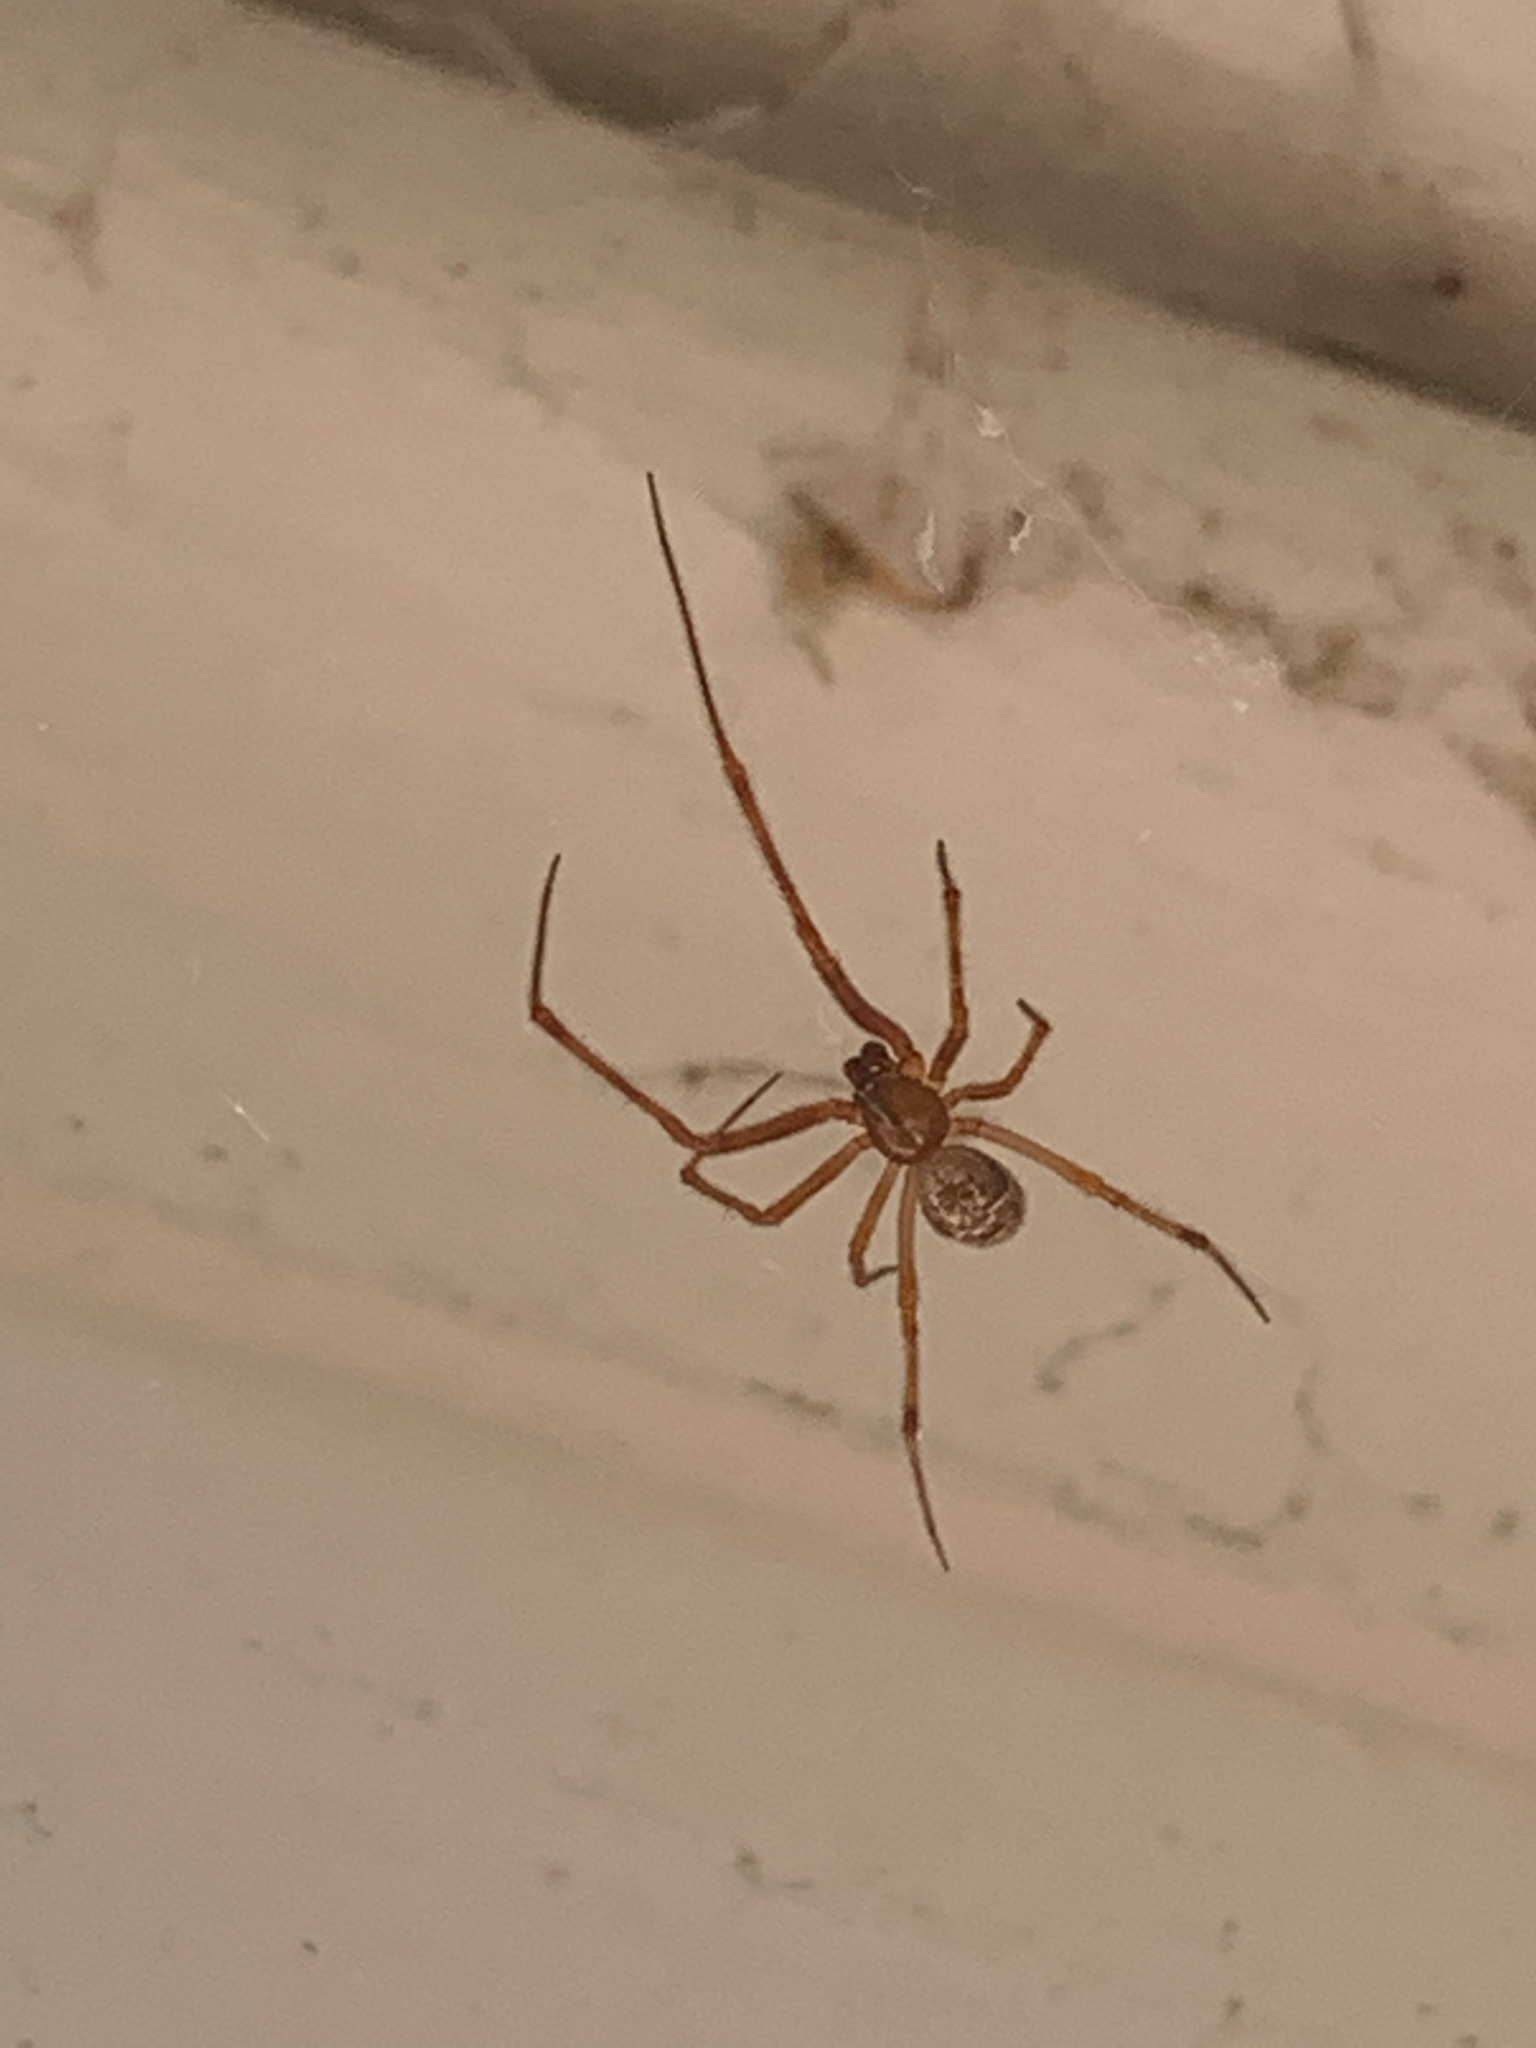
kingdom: Animalia
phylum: Arthropoda
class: Arachnida
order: Araneae
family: Theridiidae
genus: Parasteatoda
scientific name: Parasteatoda
